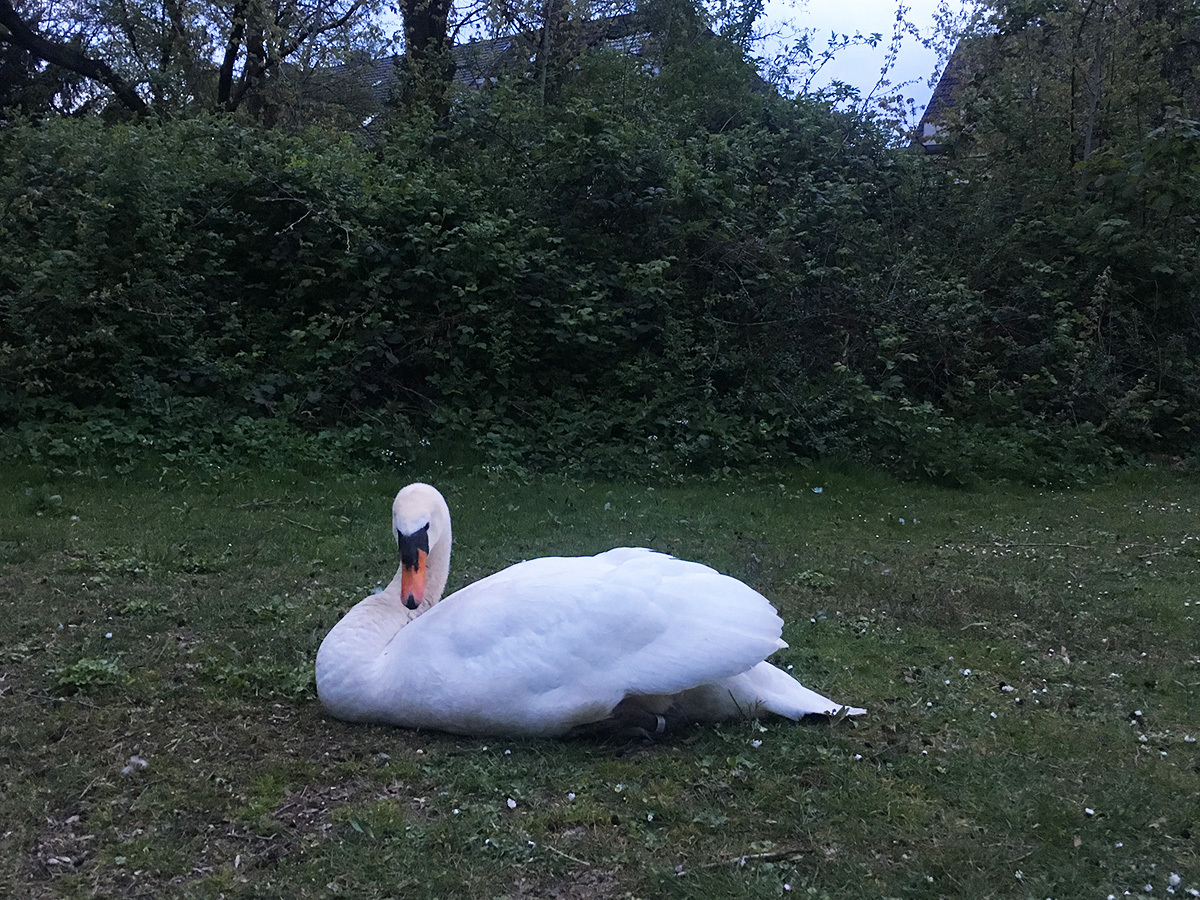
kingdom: Animalia
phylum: Chordata
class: Aves
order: Anseriformes
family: Anatidae
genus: Cygnus
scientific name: Cygnus olor
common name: Mute swan
